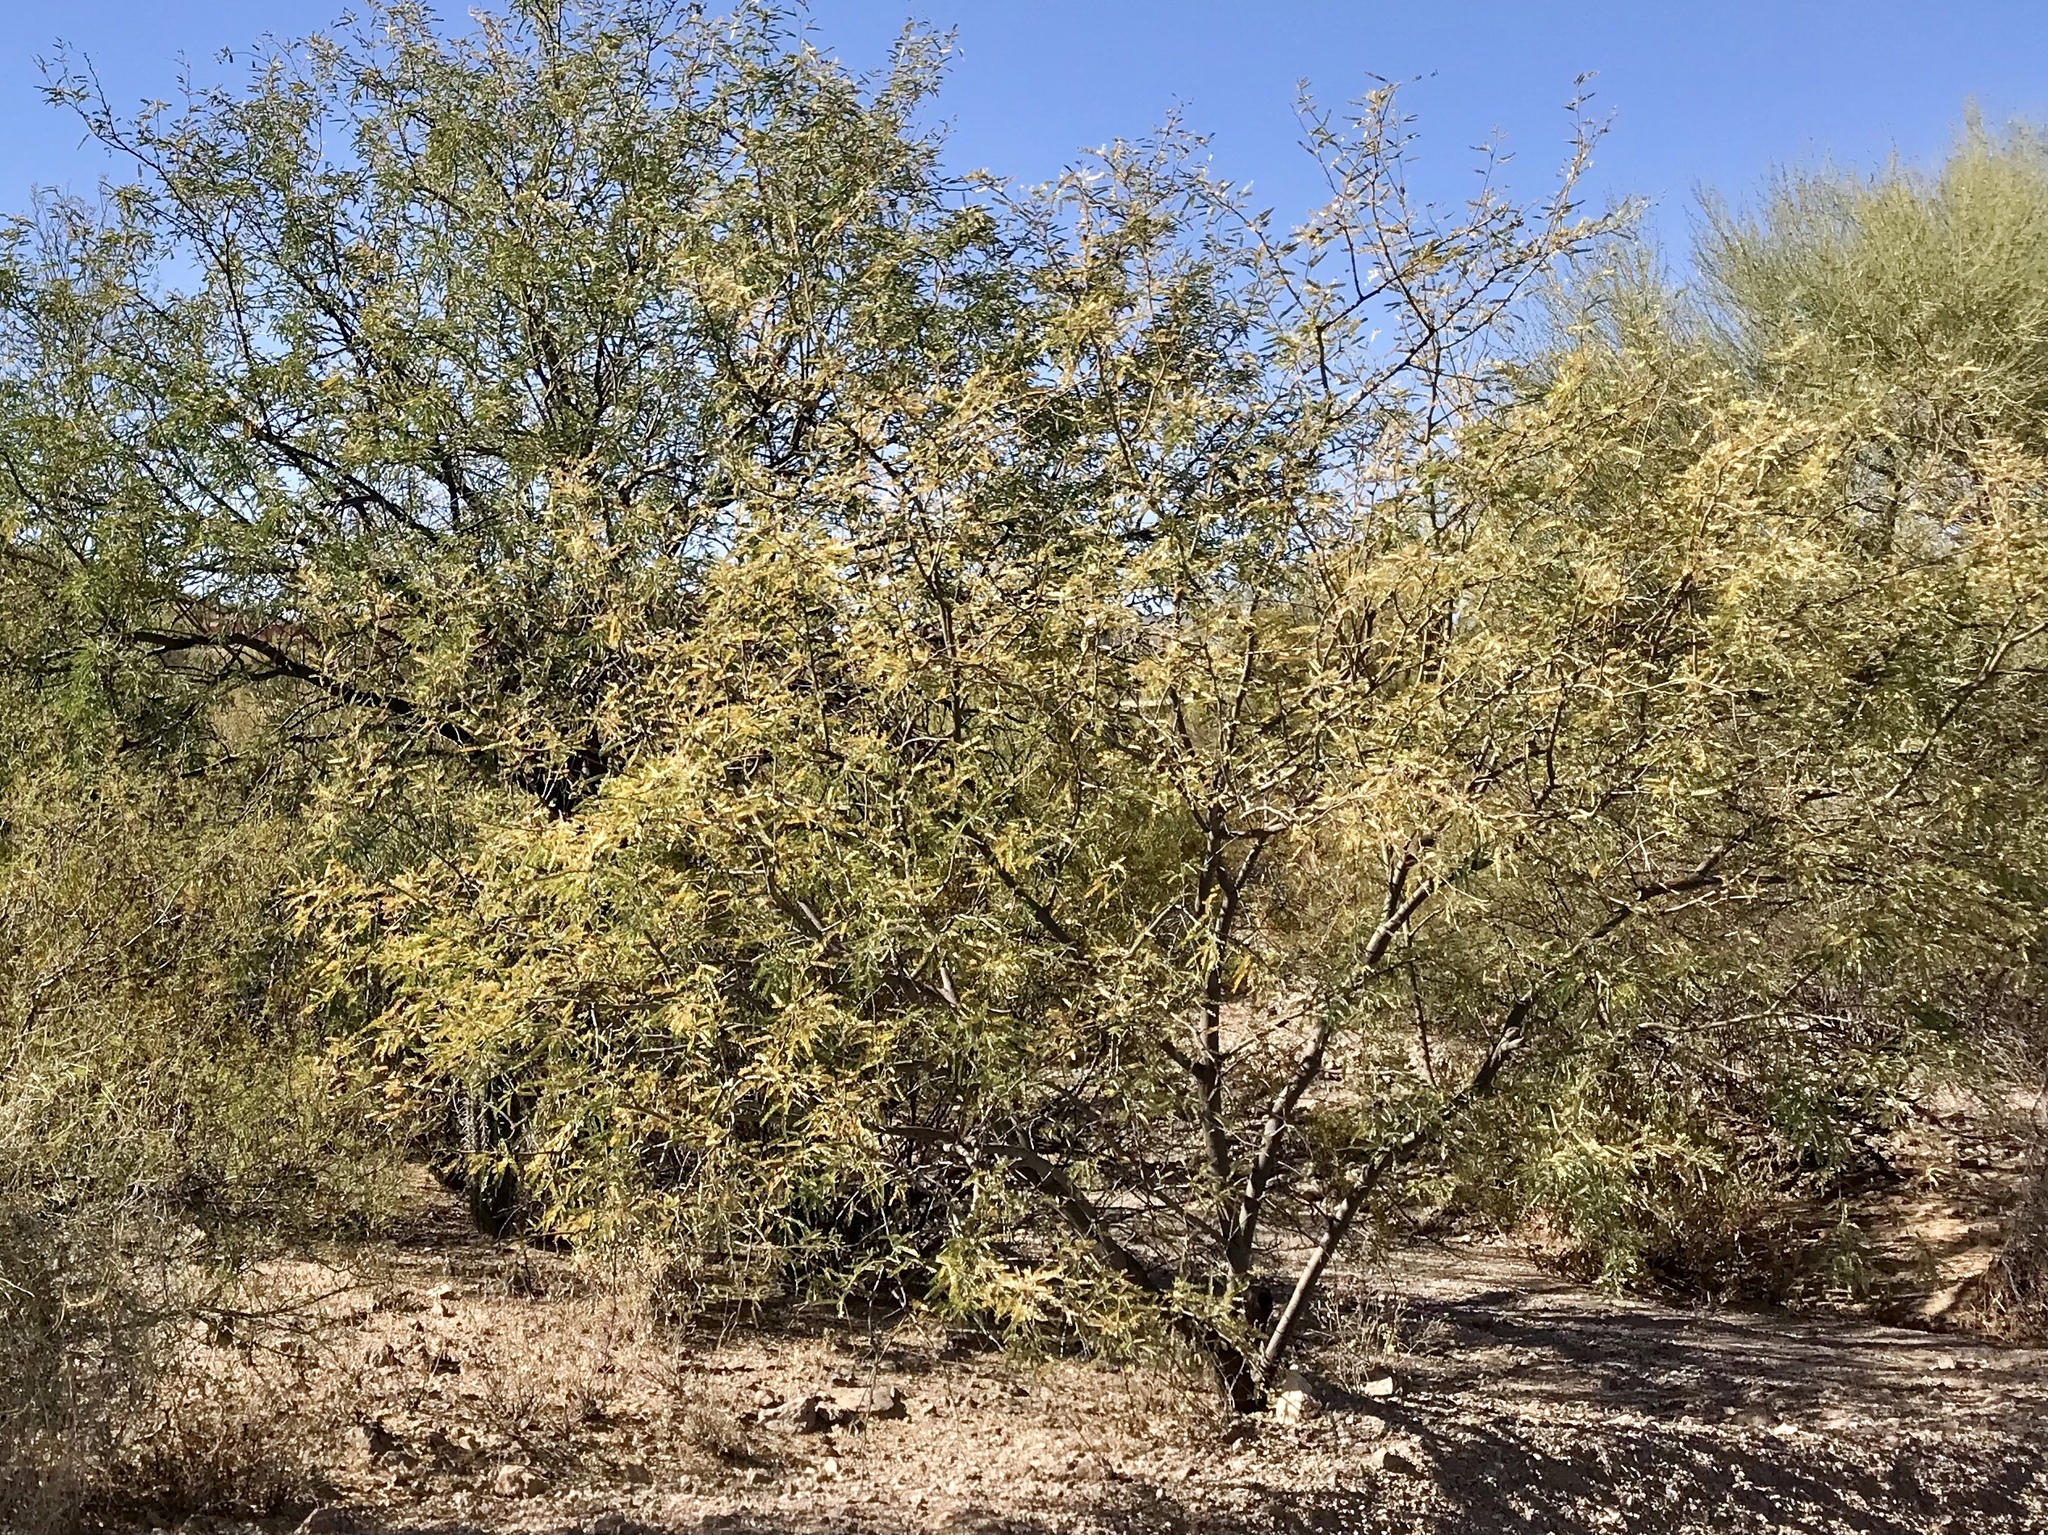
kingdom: Plantae
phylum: Tracheophyta
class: Magnoliopsida
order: Zygophyllales
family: Zygophyllaceae
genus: Larrea
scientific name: Larrea tridentata
